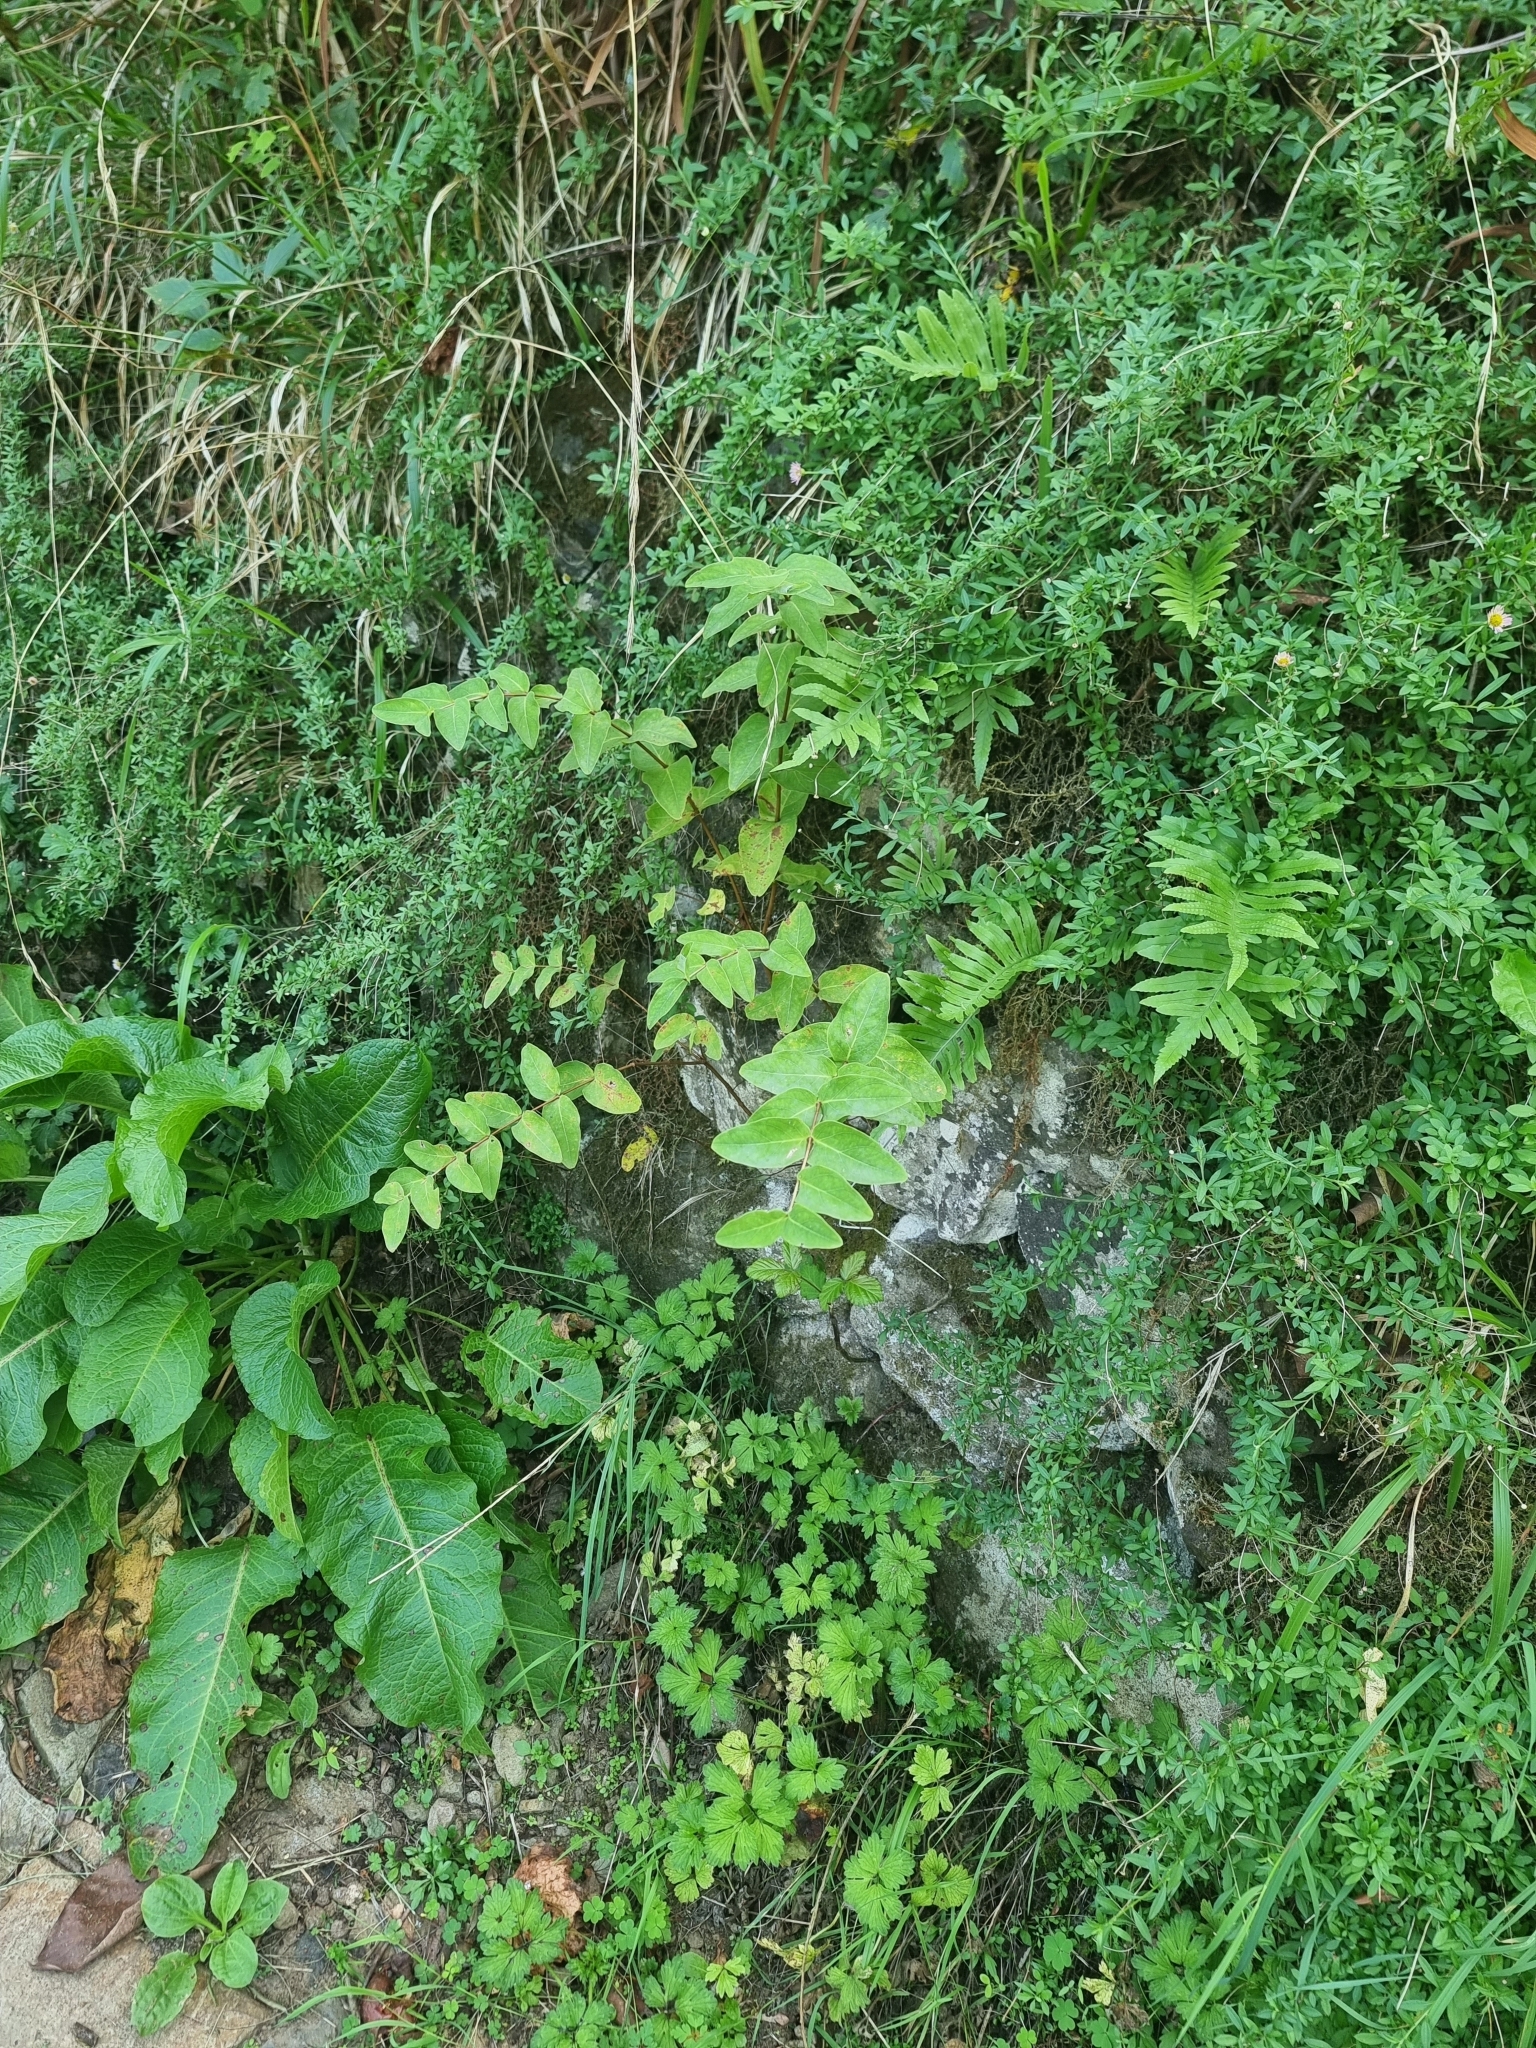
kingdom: Plantae
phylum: Tracheophyta
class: Magnoliopsida
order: Malpighiales
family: Hypericaceae
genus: Hypericum
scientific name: Hypericum grandifolium
